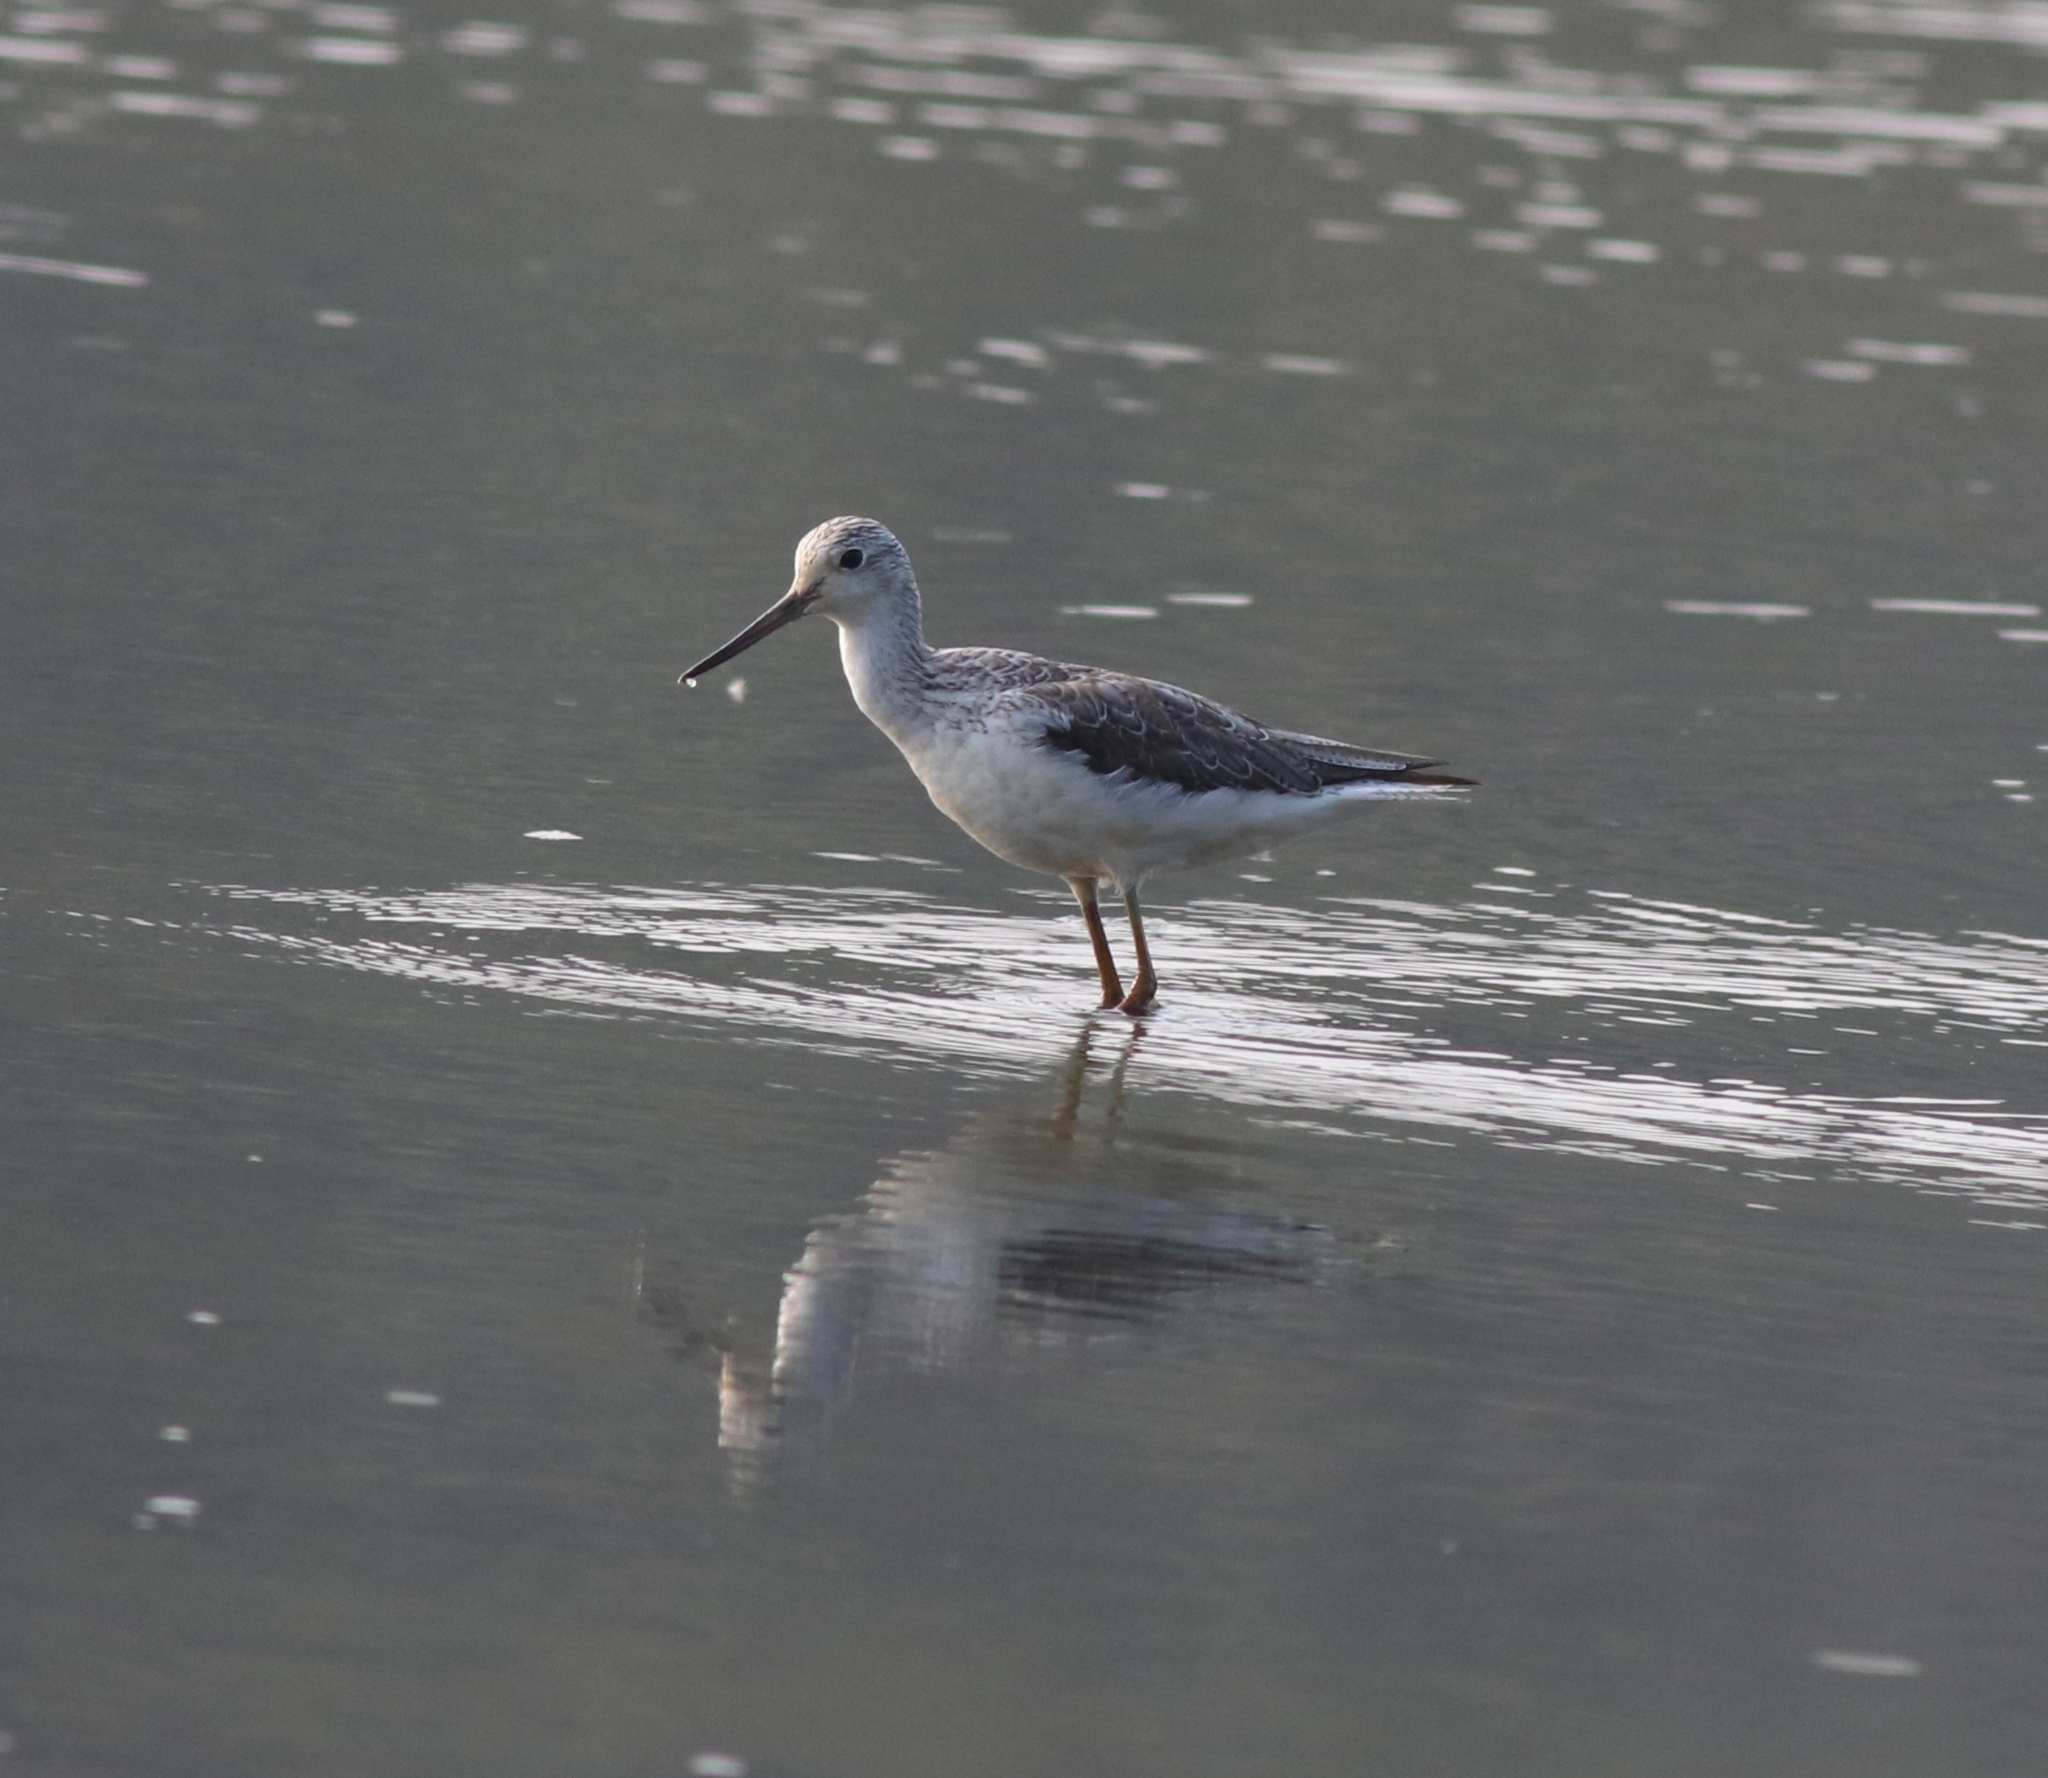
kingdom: Animalia
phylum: Chordata
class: Aves
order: Charadriiformes
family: Scolopacidae
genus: Tringa
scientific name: Tringa nebularia
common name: Common greenshank
